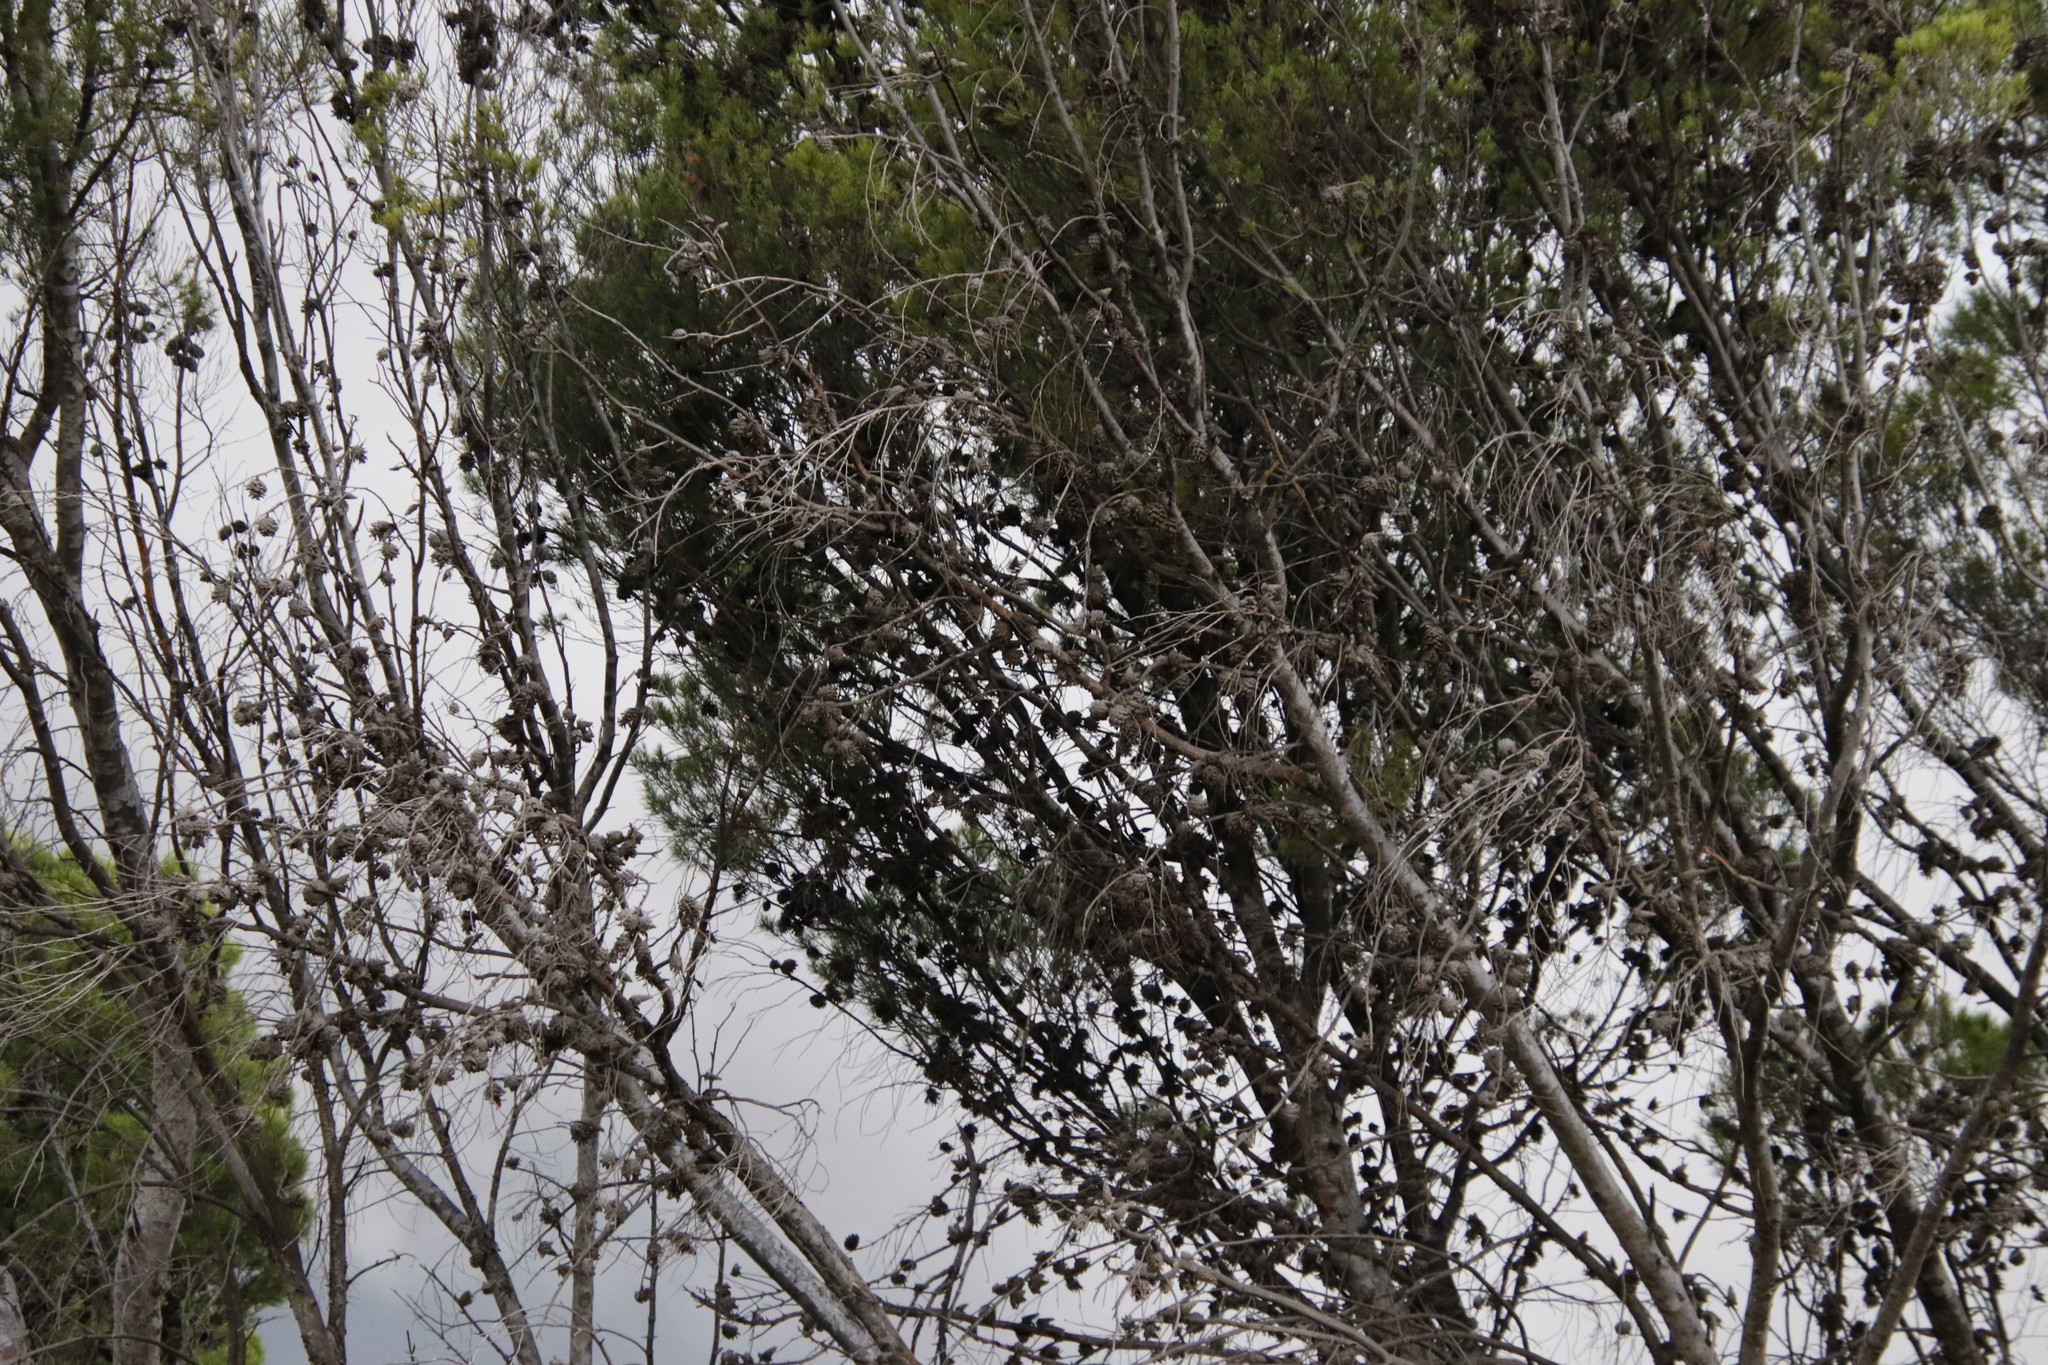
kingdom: Plantae
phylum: Tracheophyta
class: Pinopsida
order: Pinales
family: Pinaceae
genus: Pinus
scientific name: Pinus halepensis
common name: Aleppo pine
